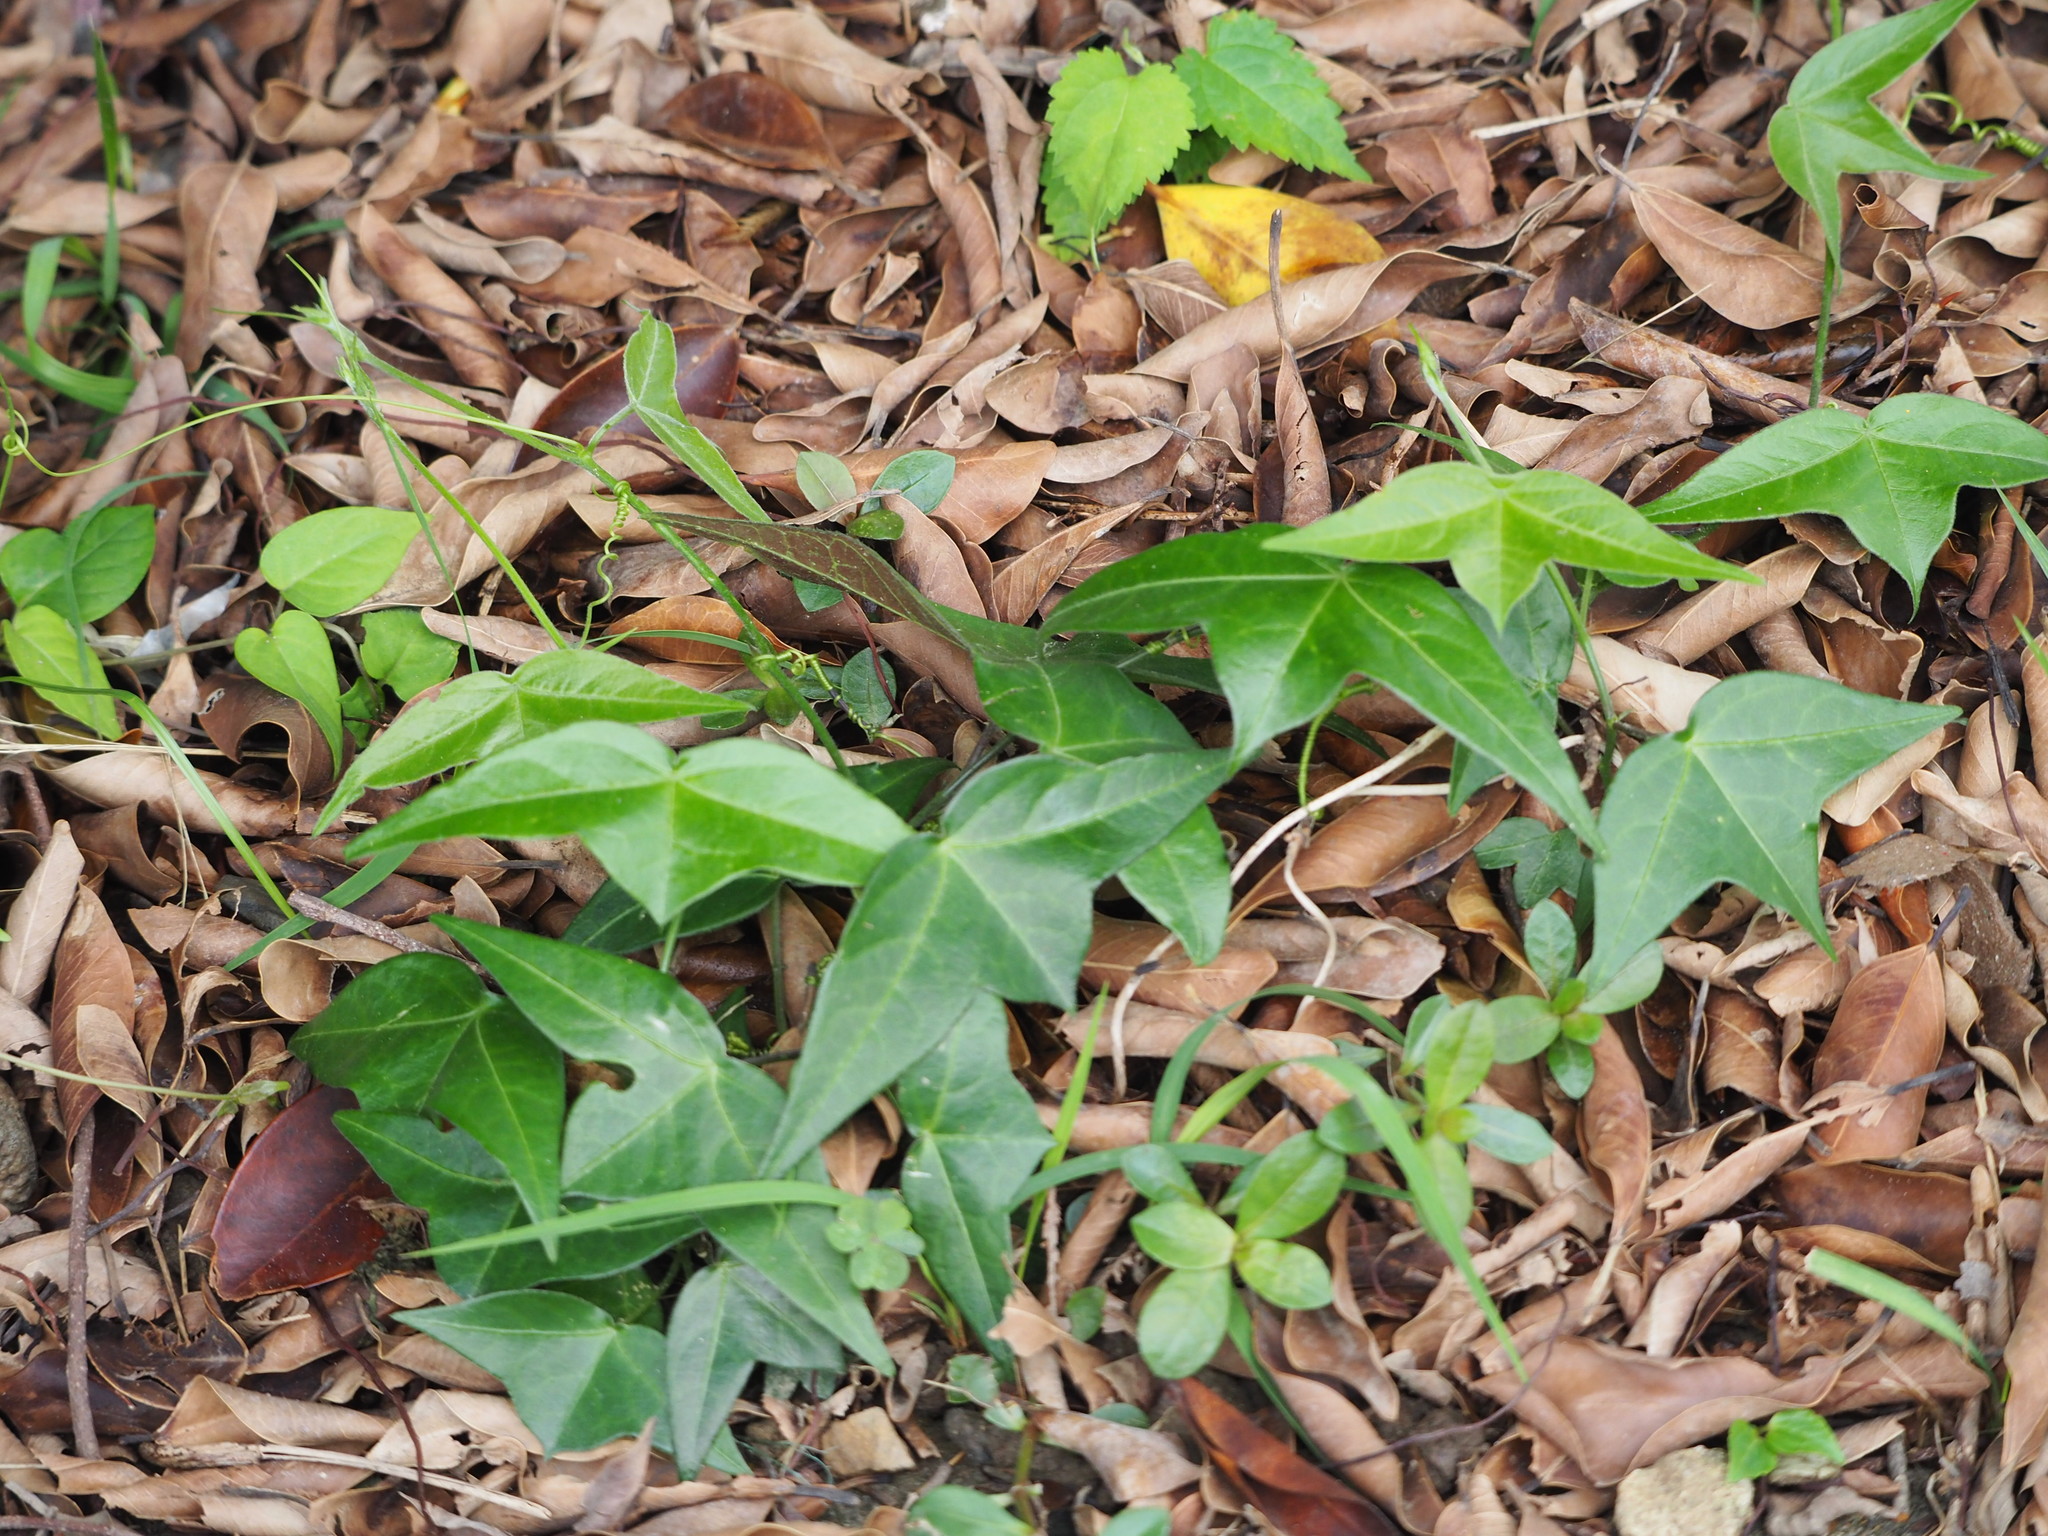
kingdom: Plantae
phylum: Tracheophyta
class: Magnoliopsida
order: Malpighiales
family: Passifloraceae
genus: Passiflora
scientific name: Passiflora suberosa
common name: Wild passionfruit
